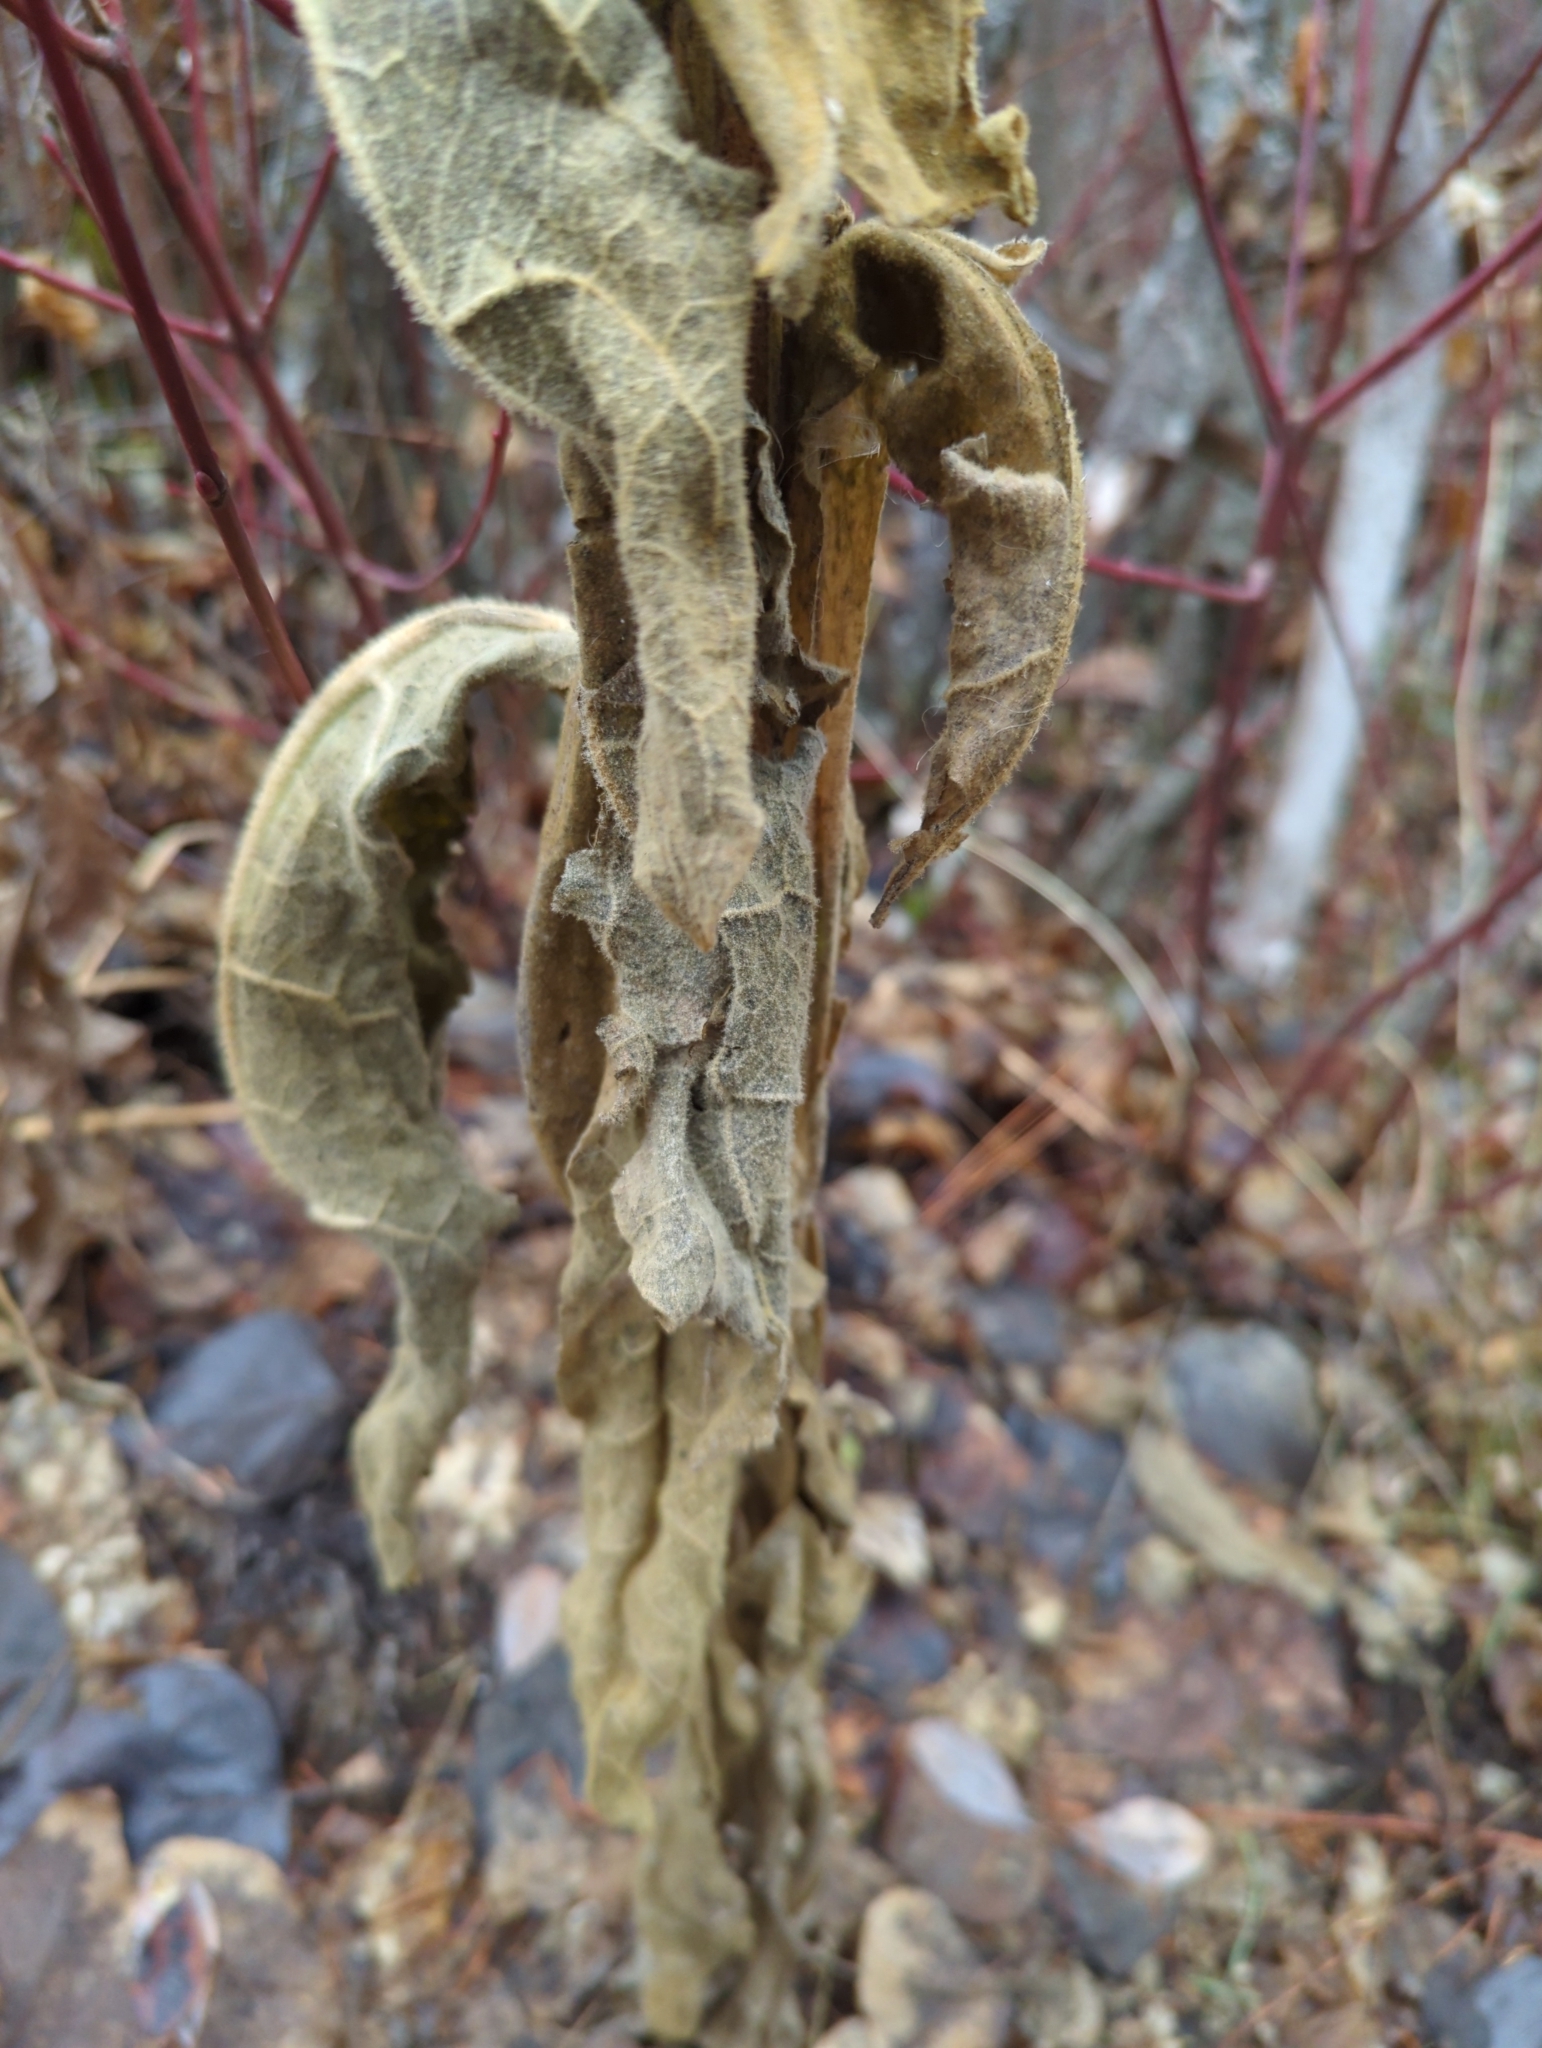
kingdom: Plantae
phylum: Tracheophyta
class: Magnoliopsida
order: Lamiales
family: Scrophulariaceae
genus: Verbascum
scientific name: Verbascum thapsus
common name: Common mullein
